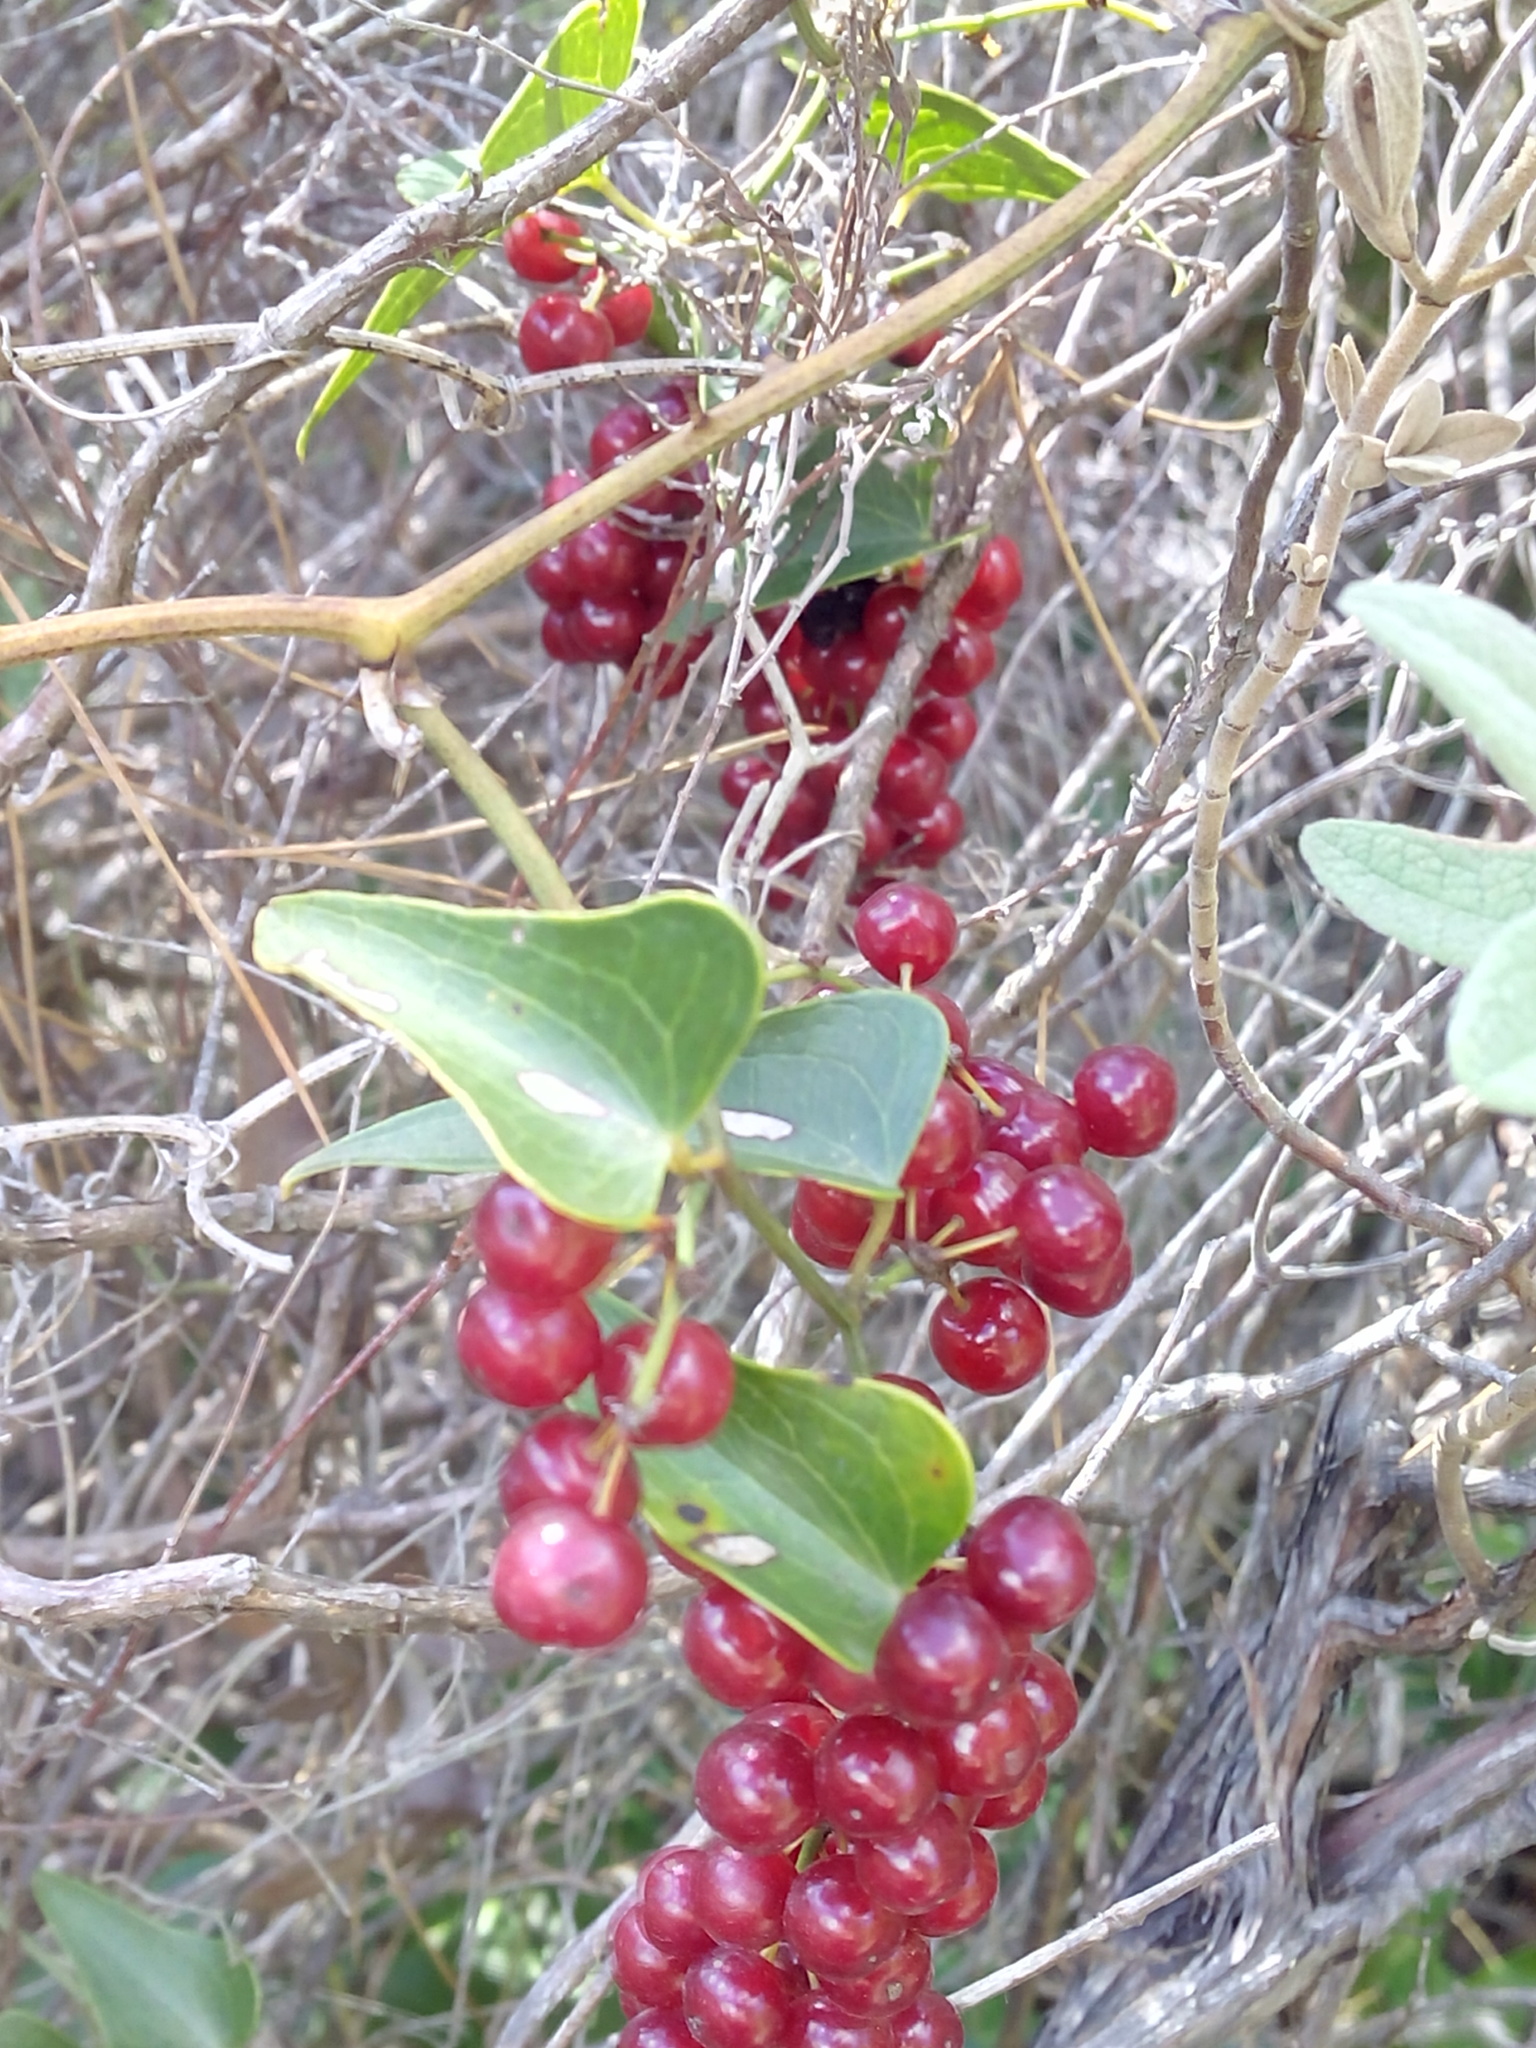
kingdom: Plantae
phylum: Tracheophyta
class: Liliopsida
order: Liliales
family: Smilacaceae
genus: Smilax
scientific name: Smilax aspera
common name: Common smilax
